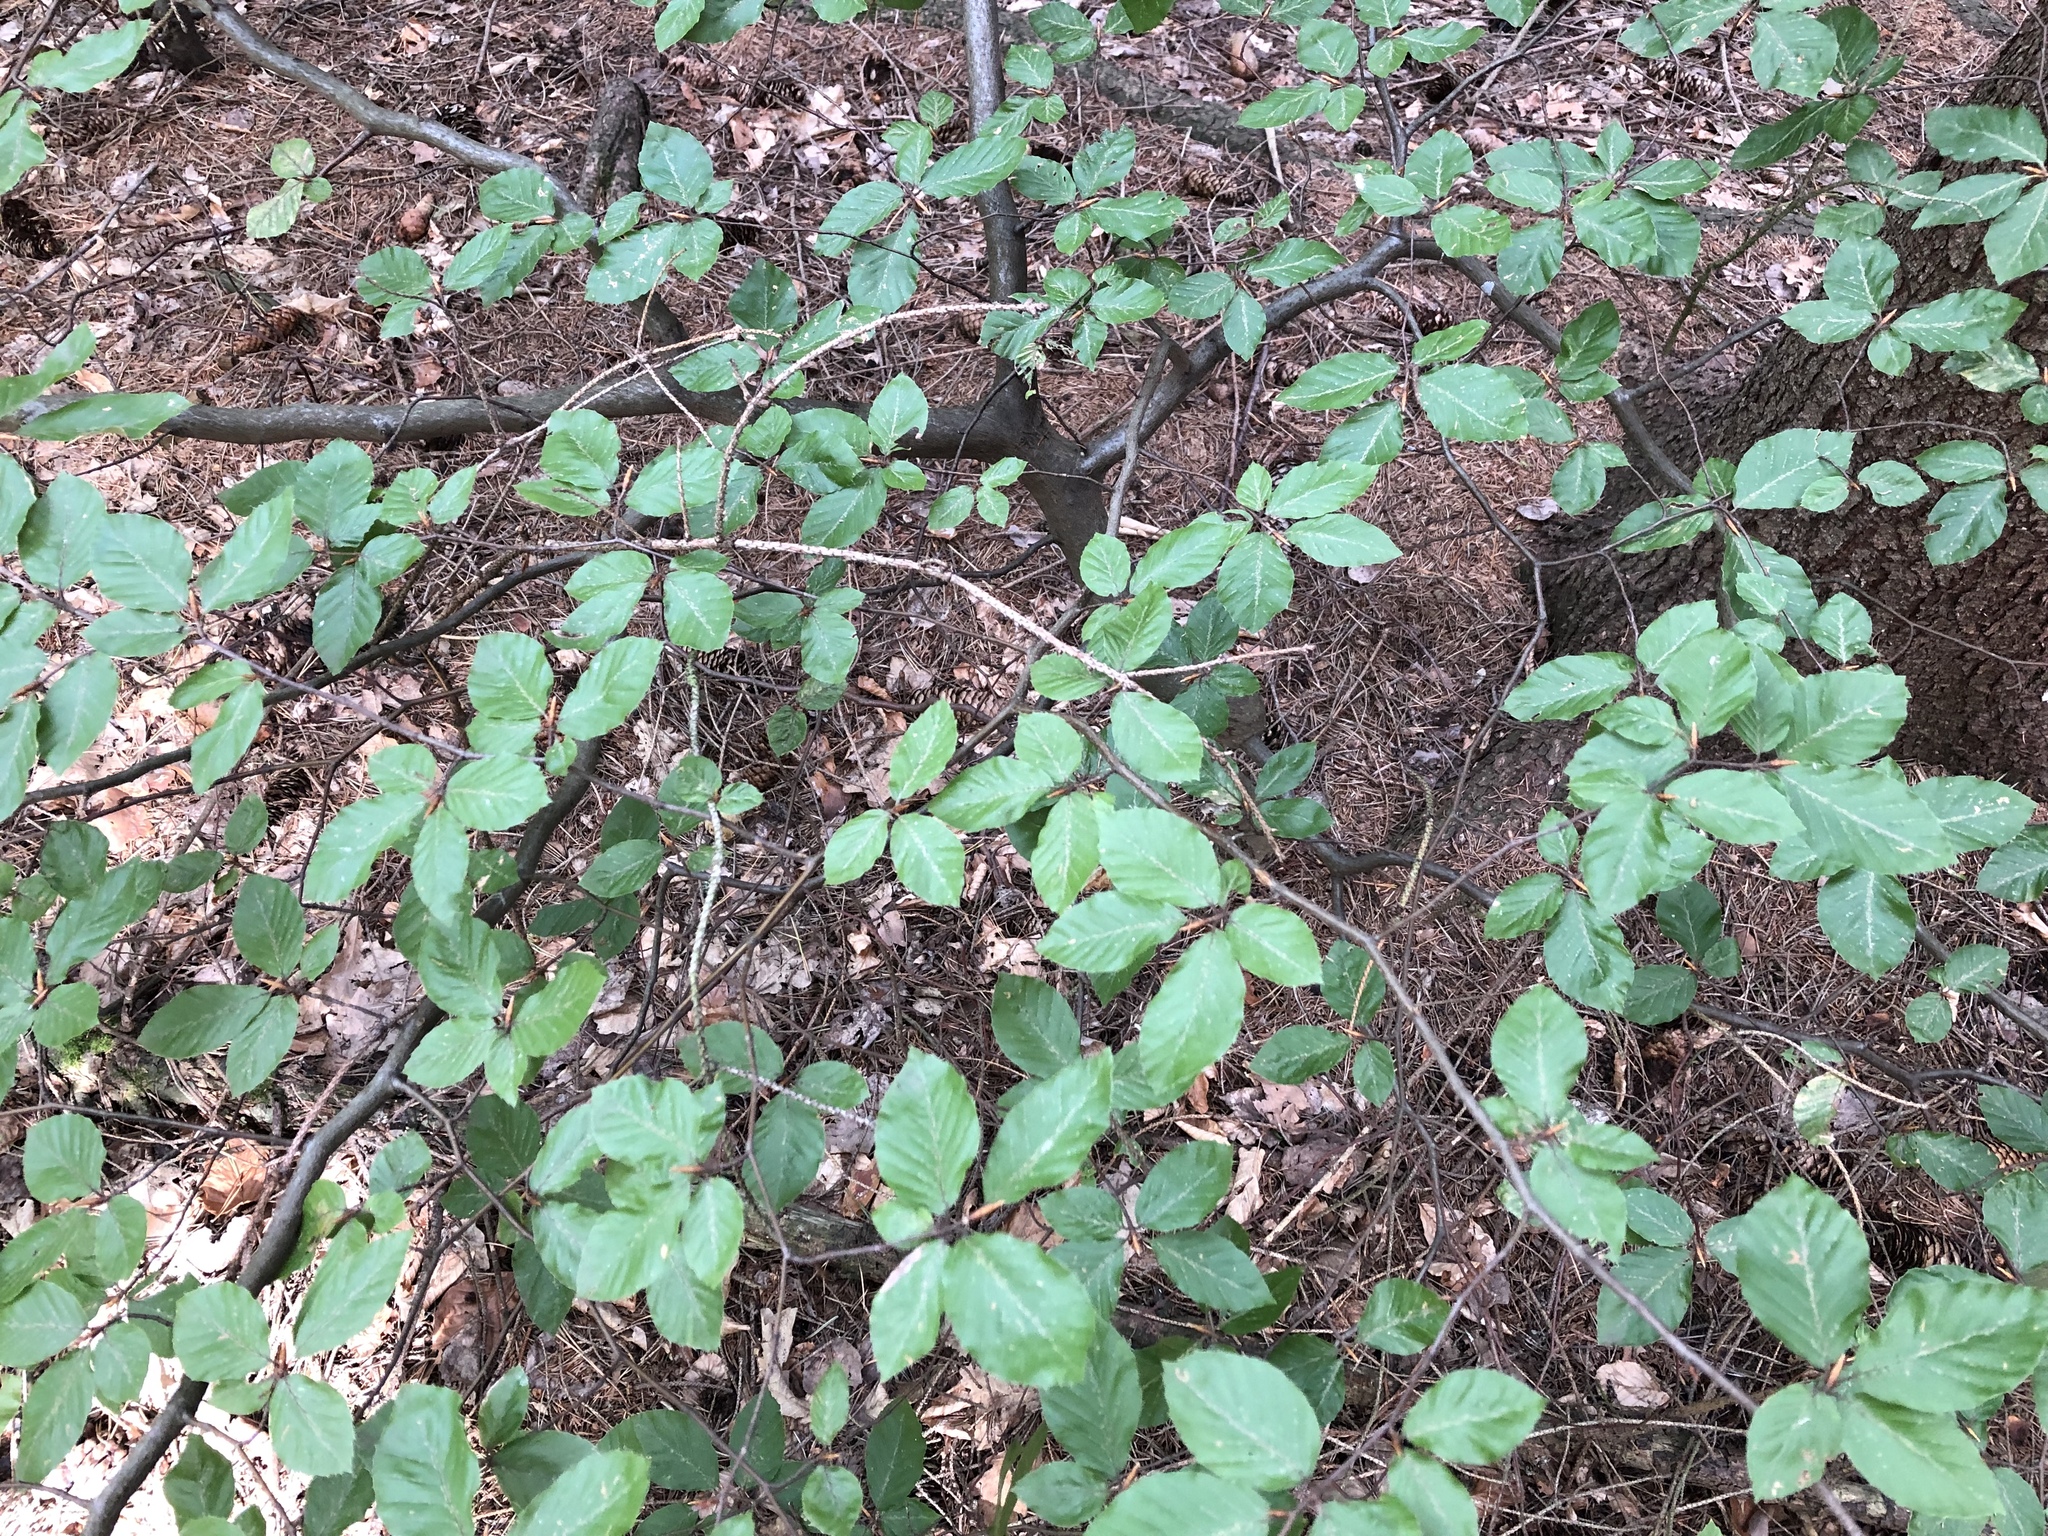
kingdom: Plantae
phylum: Tracheophyta
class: Magnoliopsida
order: Fagales
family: Fagaceae
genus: Fagus
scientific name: Fagus sylvatica
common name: Beech
